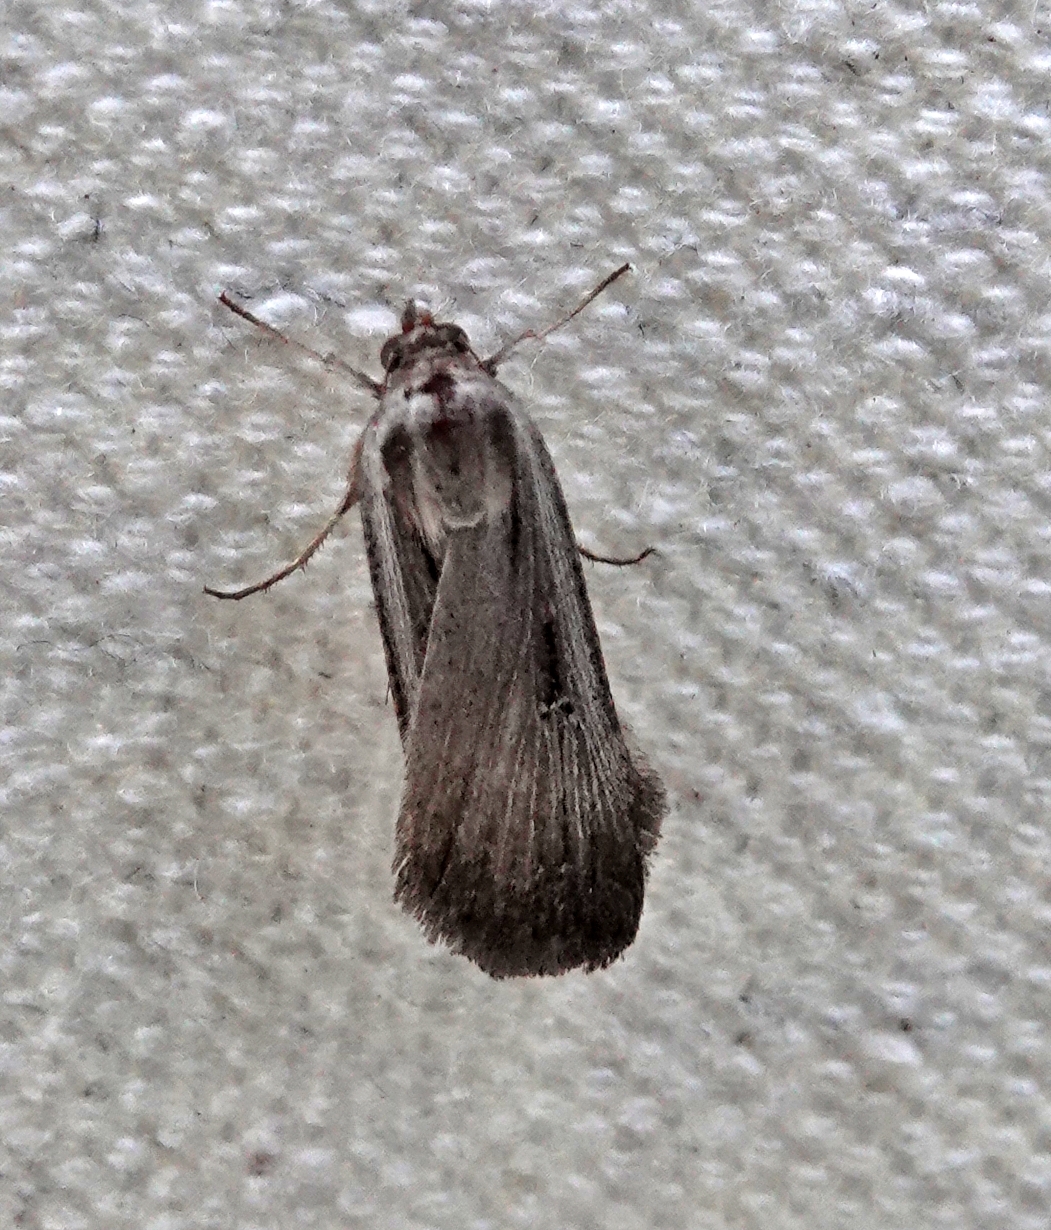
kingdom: Animalia
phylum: Arthropoda
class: Insecta
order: Lepidoptera
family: Noctuidae
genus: Tathorhynchus
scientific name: Tathorhynchus exsiccata
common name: Levant blackneck moth
